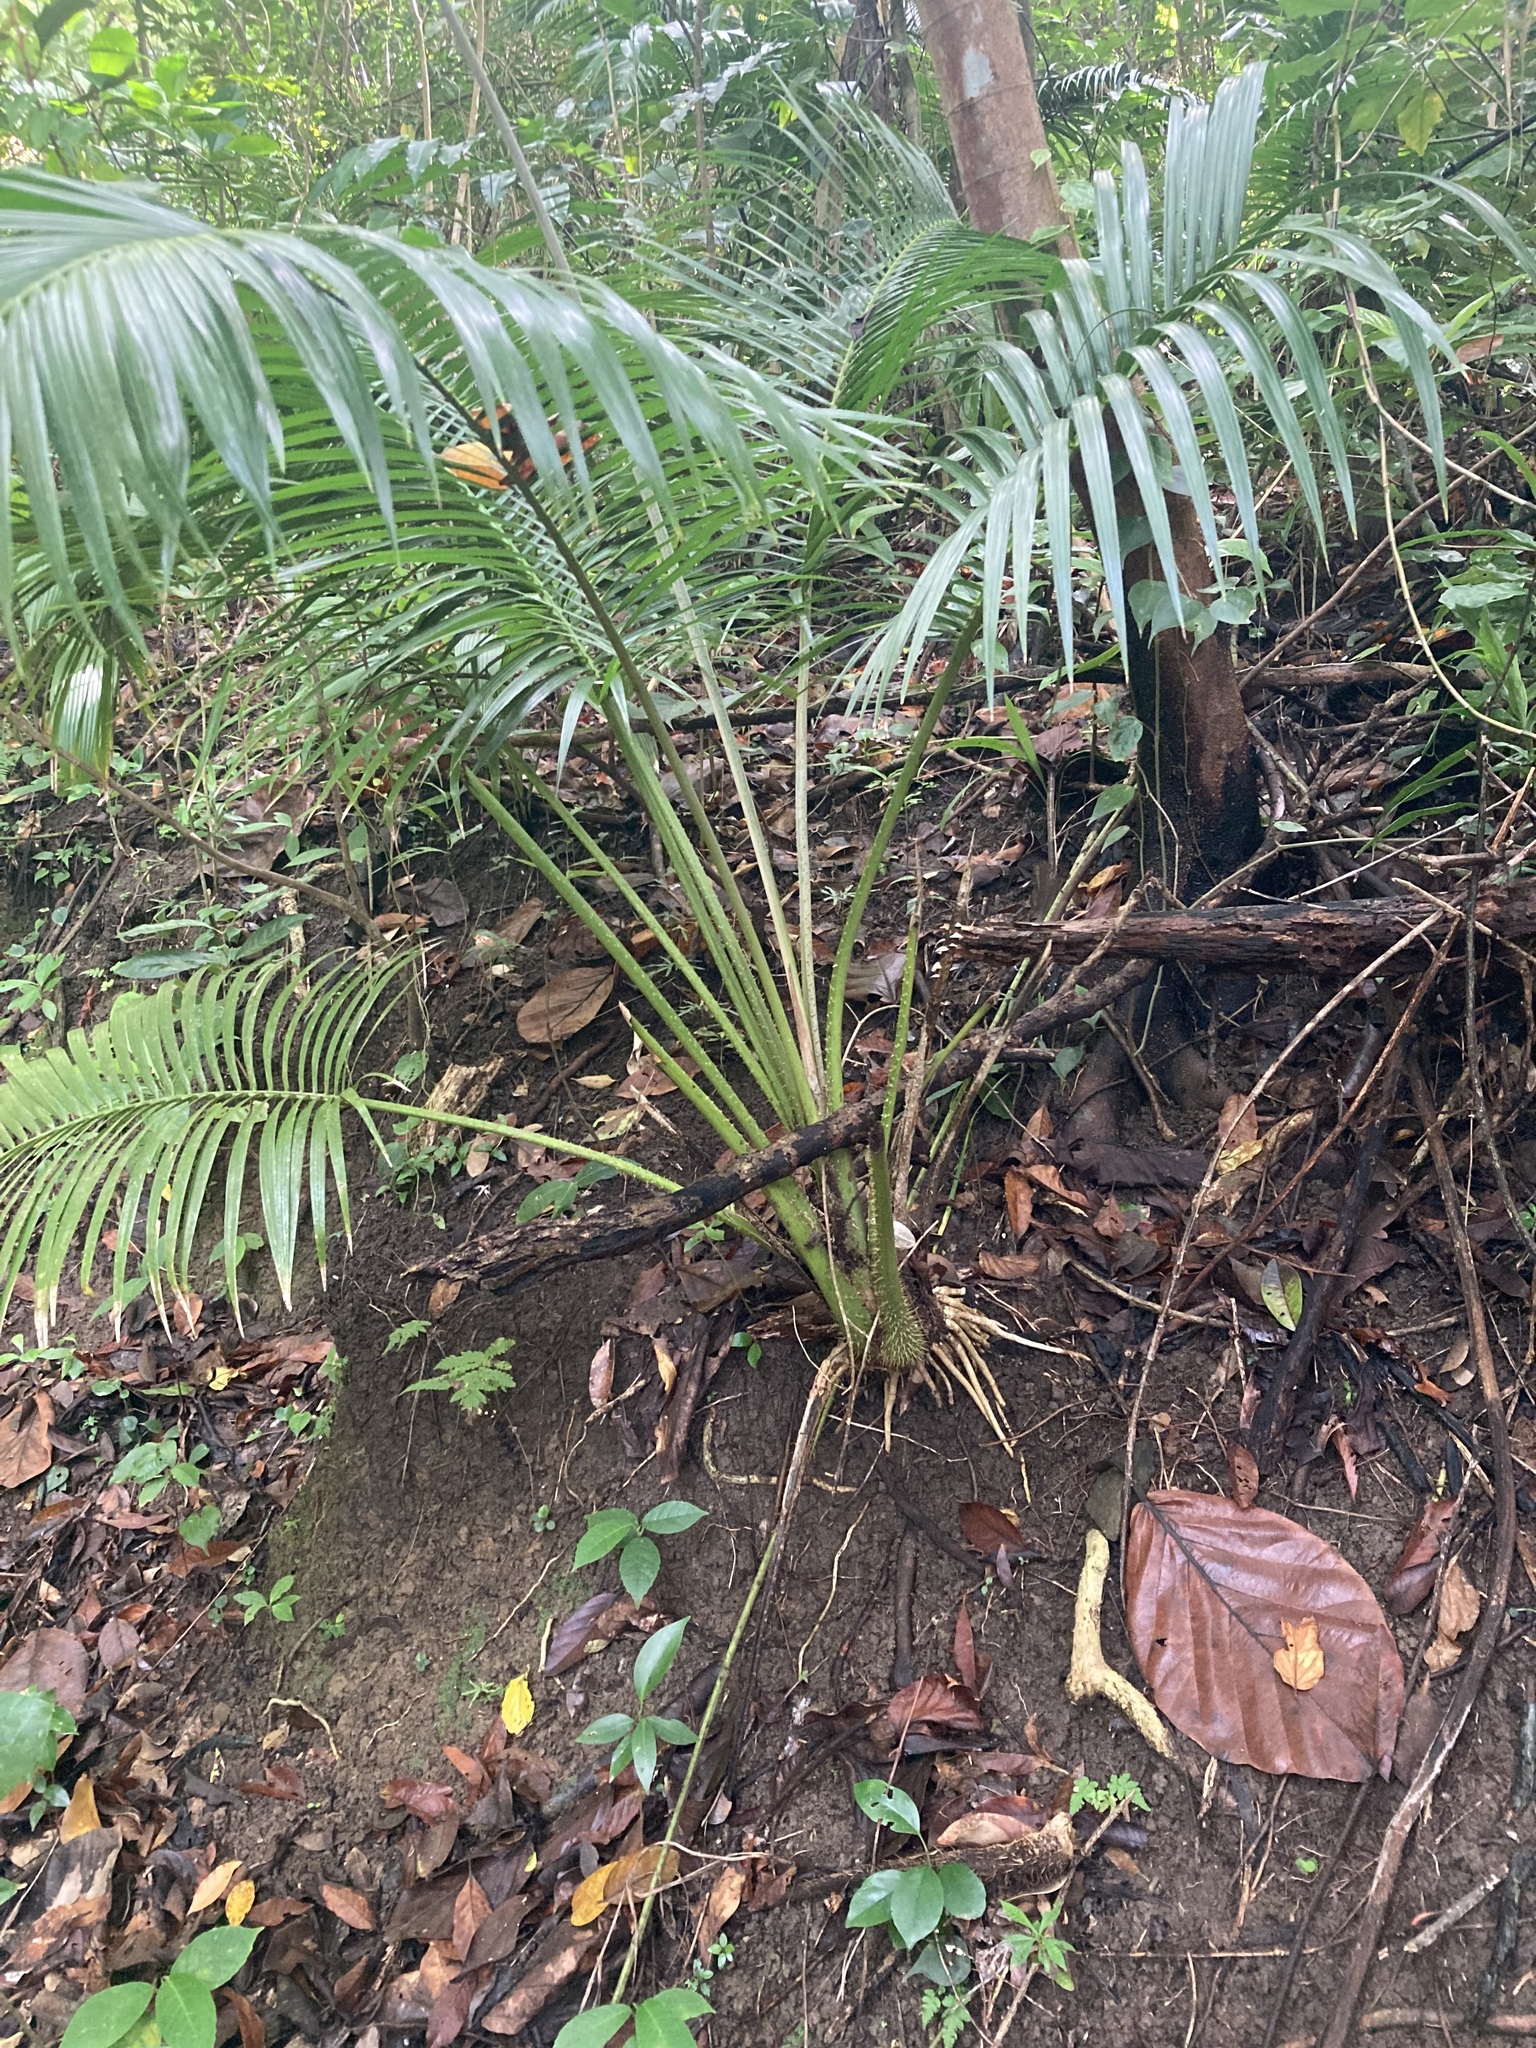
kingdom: Plantae
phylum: Tracheophyta
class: Liliopsida
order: Arecales
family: Arecaceae
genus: Calamus
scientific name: Calamus siphonospathus
